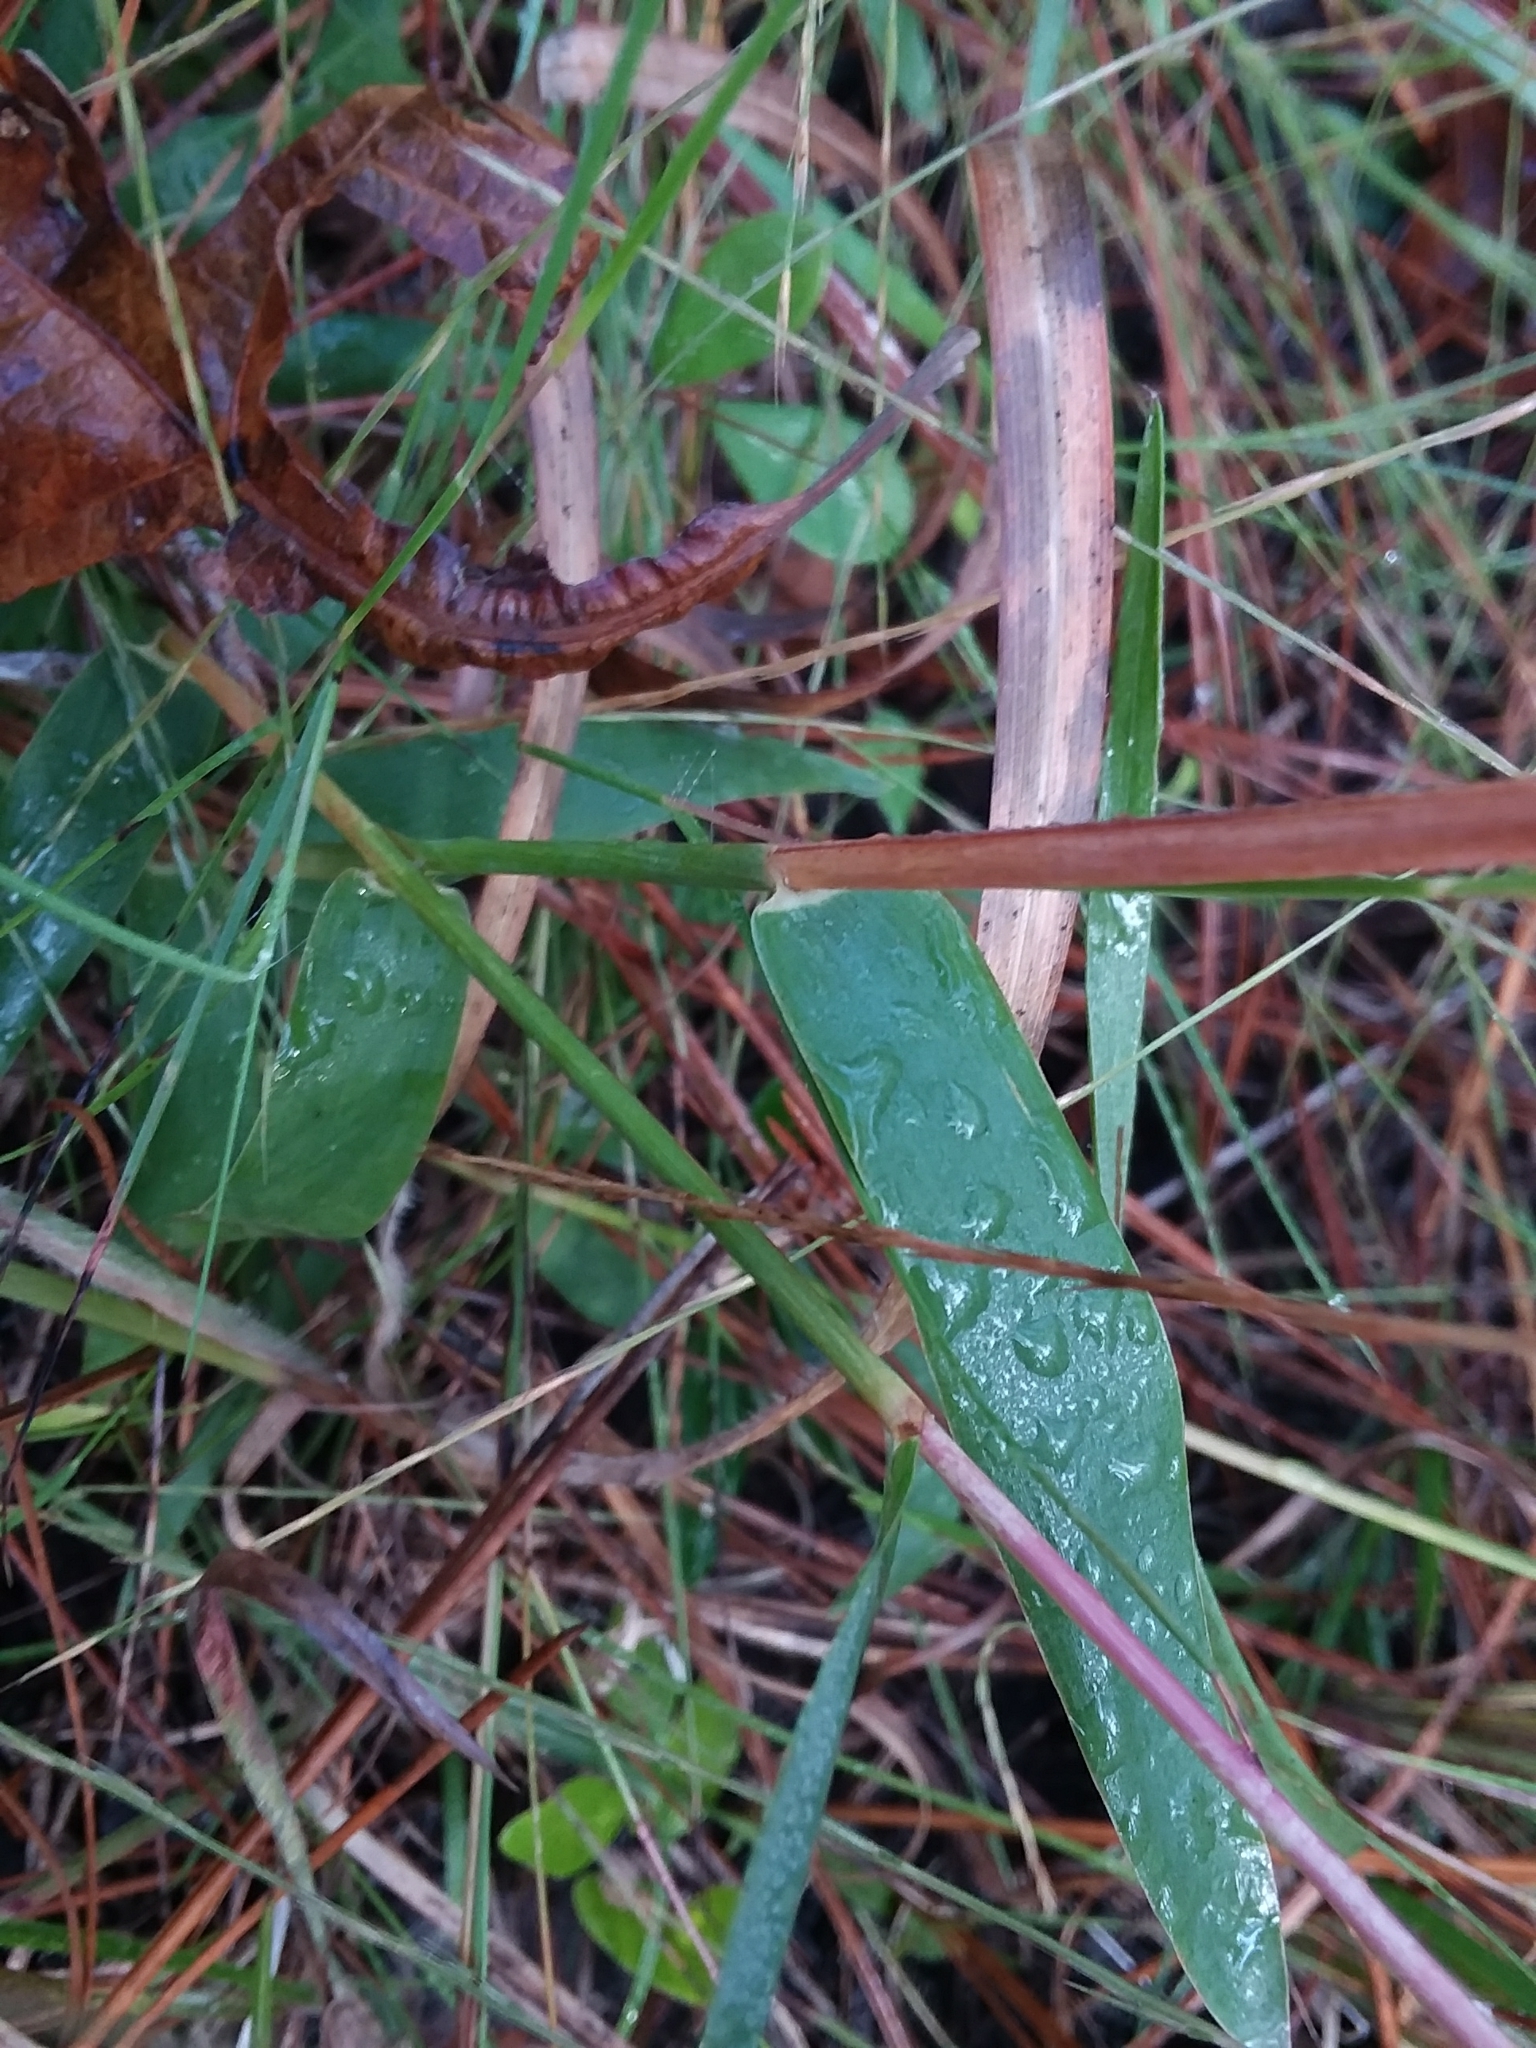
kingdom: Plantae
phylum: Tracheophyta
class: Liliopsida
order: Poales
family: Poaceae
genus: Gymnopogon
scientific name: Gymnopogon ambiguus
